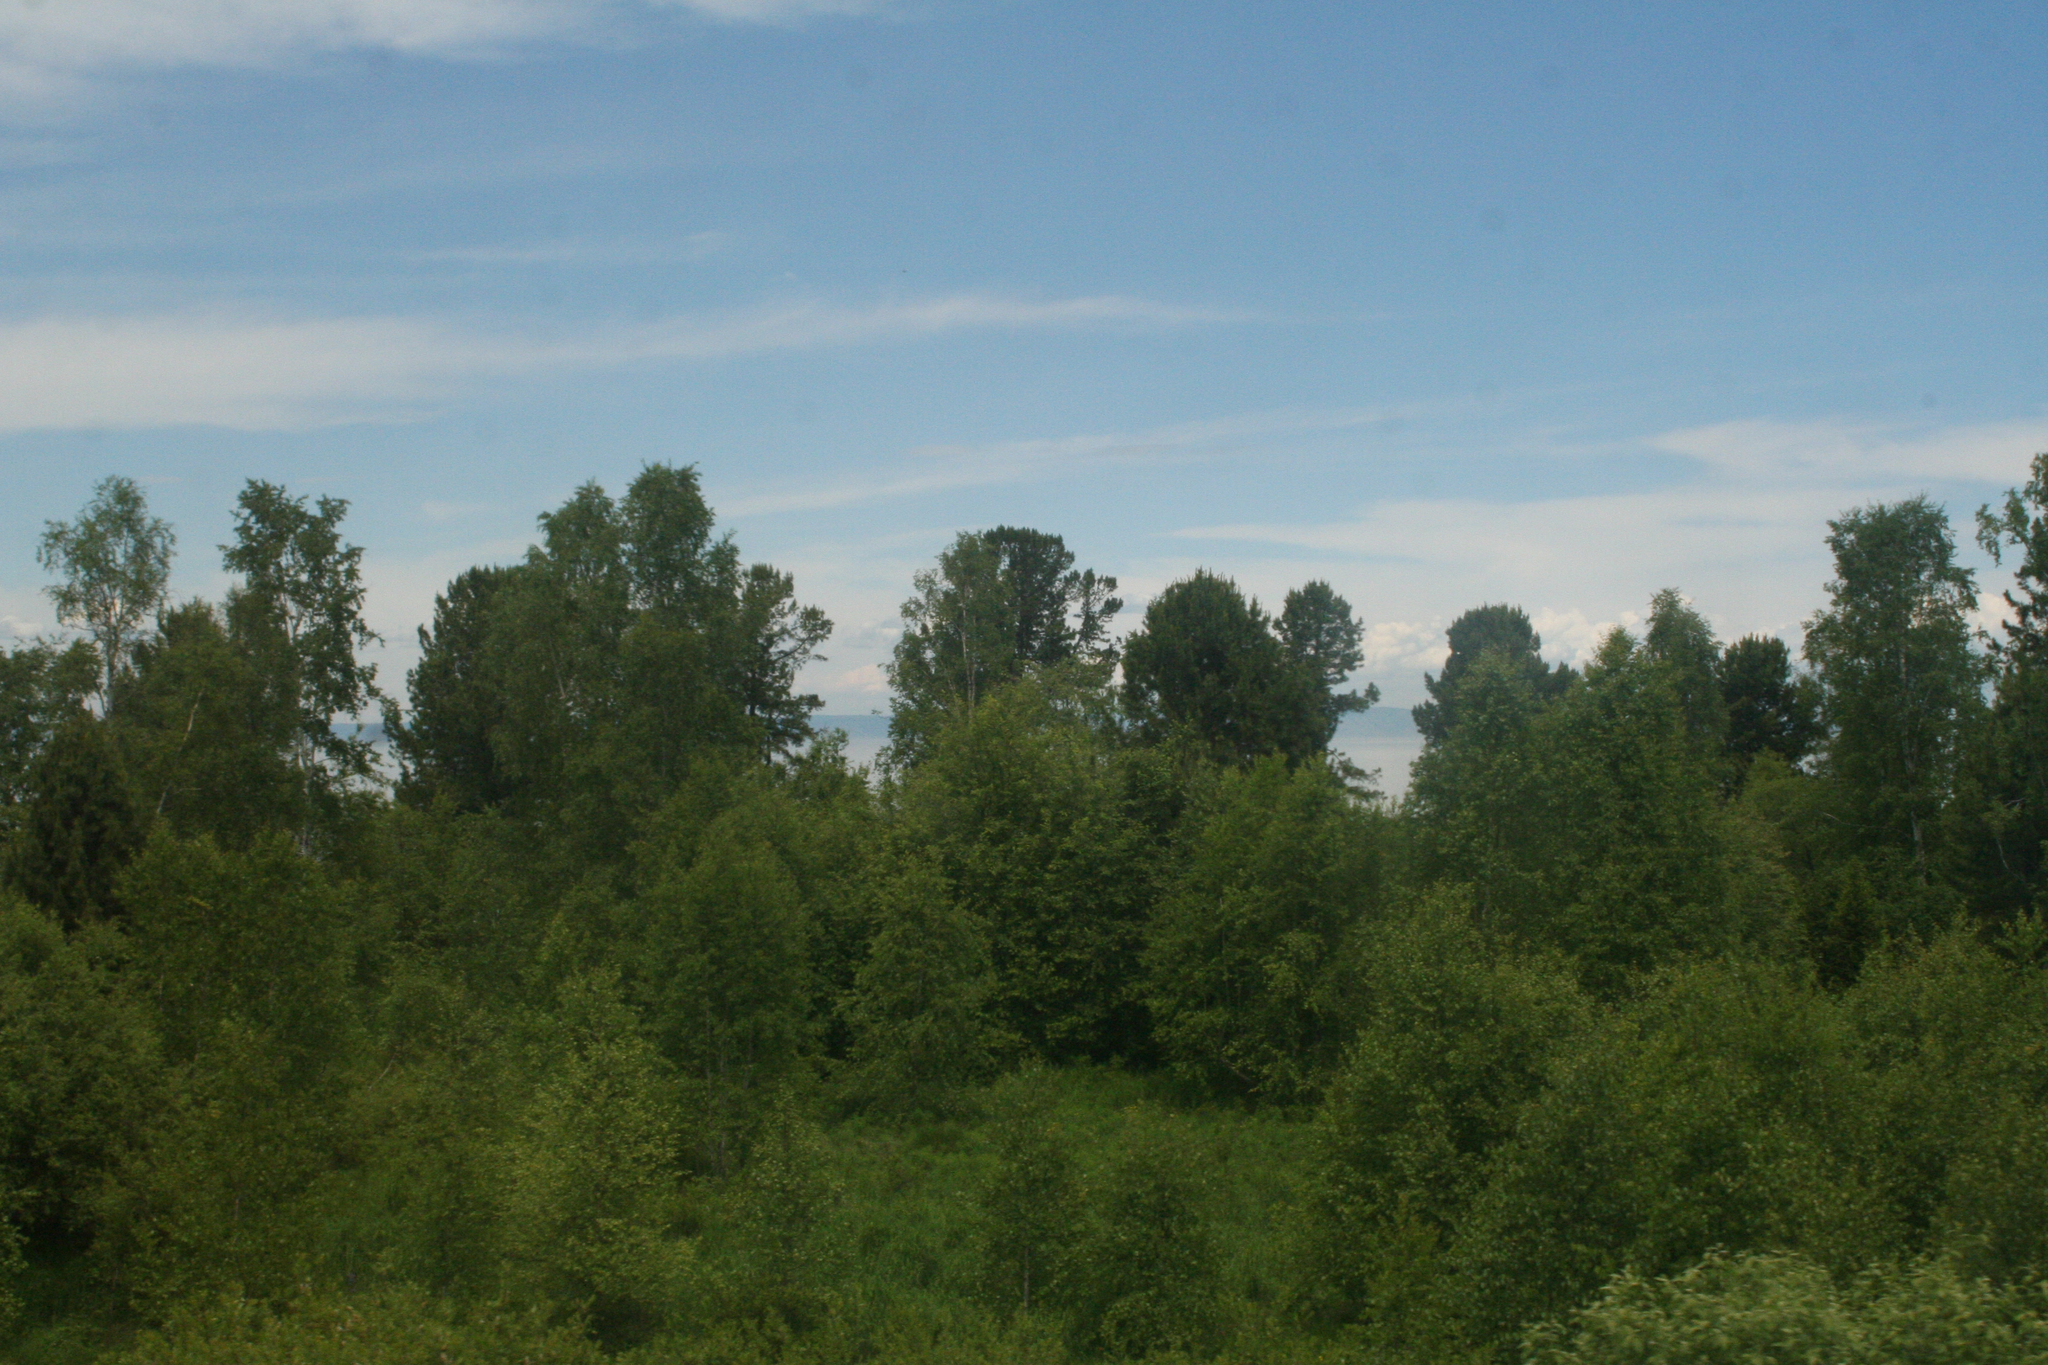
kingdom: Plantae
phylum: Tracheophyta
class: Pinopsida
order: Pinales
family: Pinaceae
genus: Pinus
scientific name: Pinus sibirica
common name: Siberian pine
